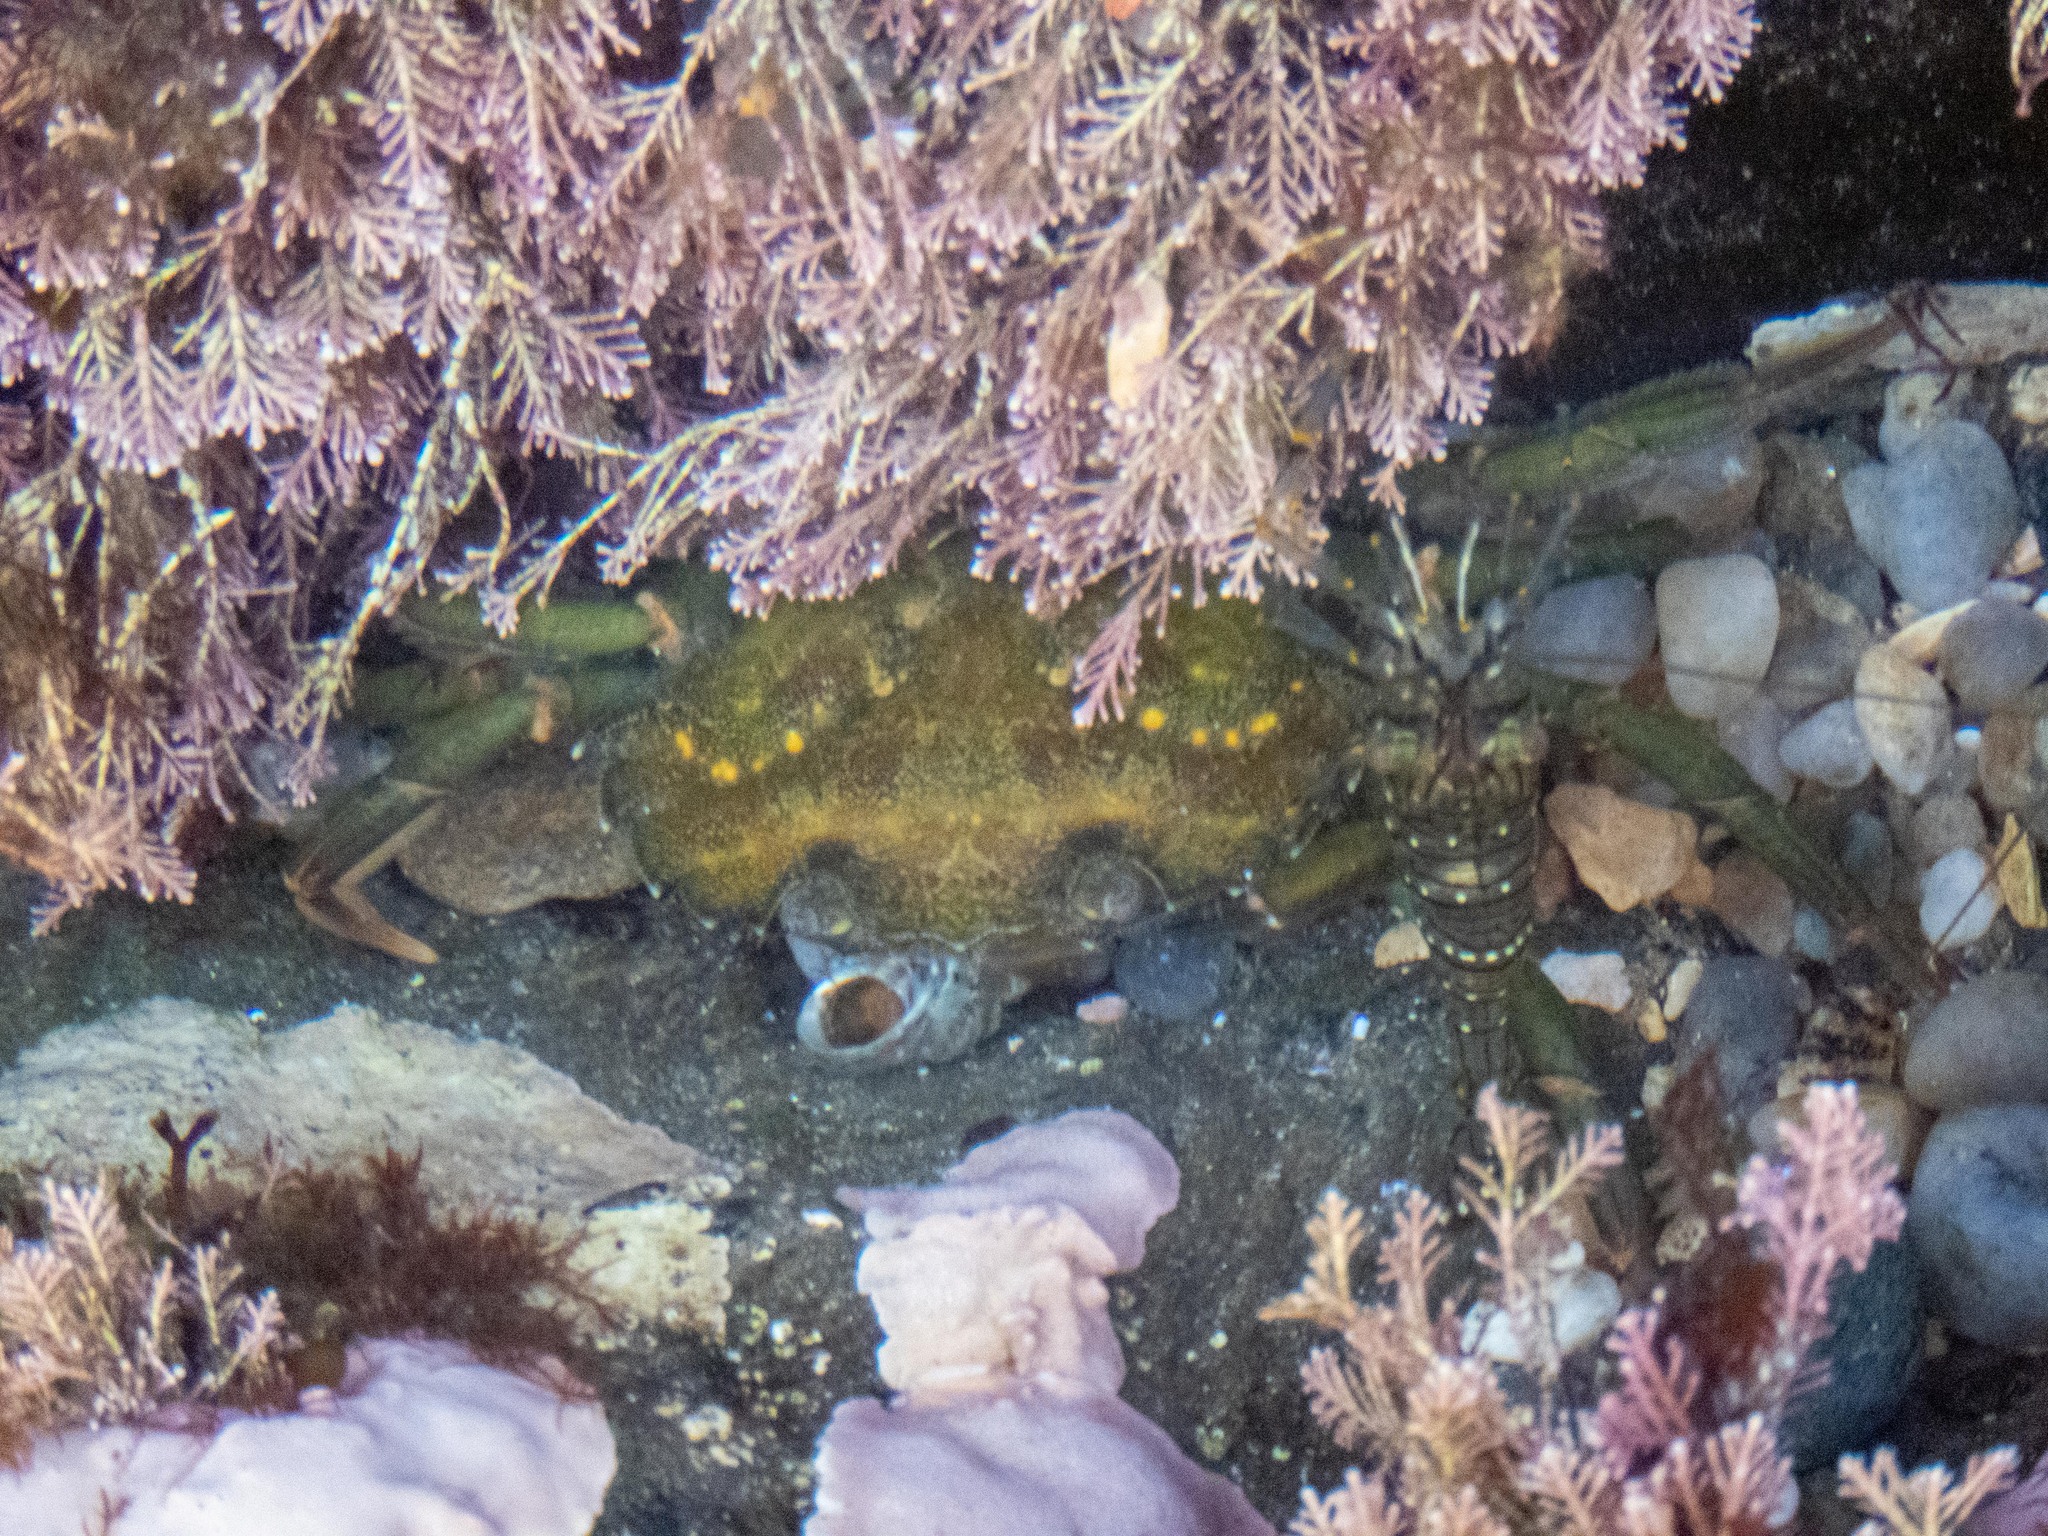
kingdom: Animalia
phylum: Arthropoda
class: Malacostraca
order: Decapoda
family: Carcinidae
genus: Carcinus
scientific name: Carcinus maenas
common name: European green crab
